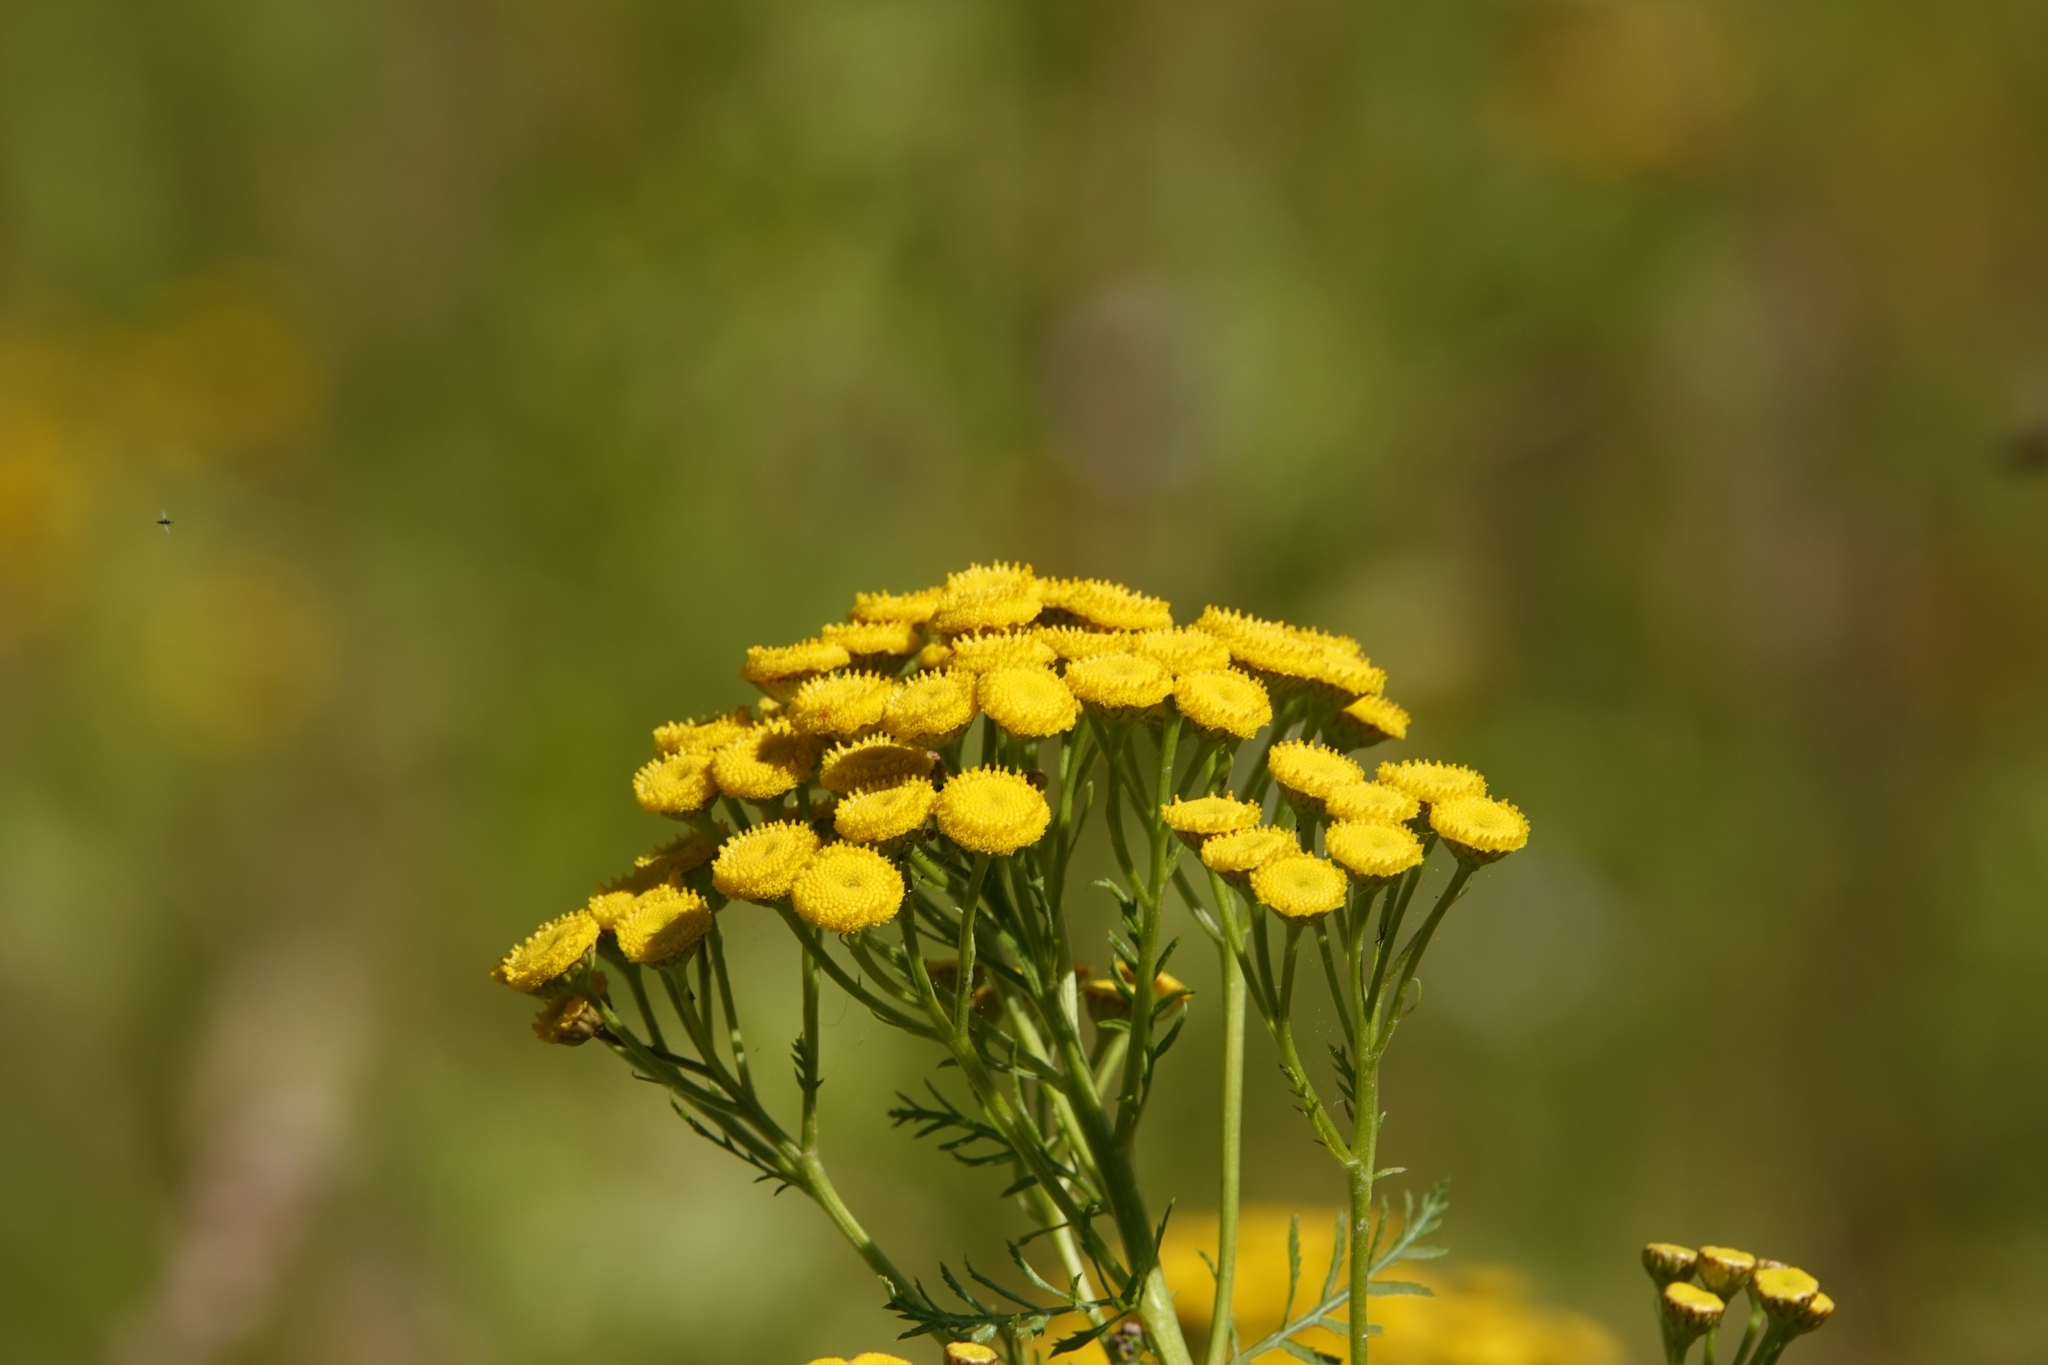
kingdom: Plantae
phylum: Tracheophyta
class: Magnoliopsida
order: Asterales
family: Asteraceae
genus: Tanacetum
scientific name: Tanacetum vulgare
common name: Common tansy
